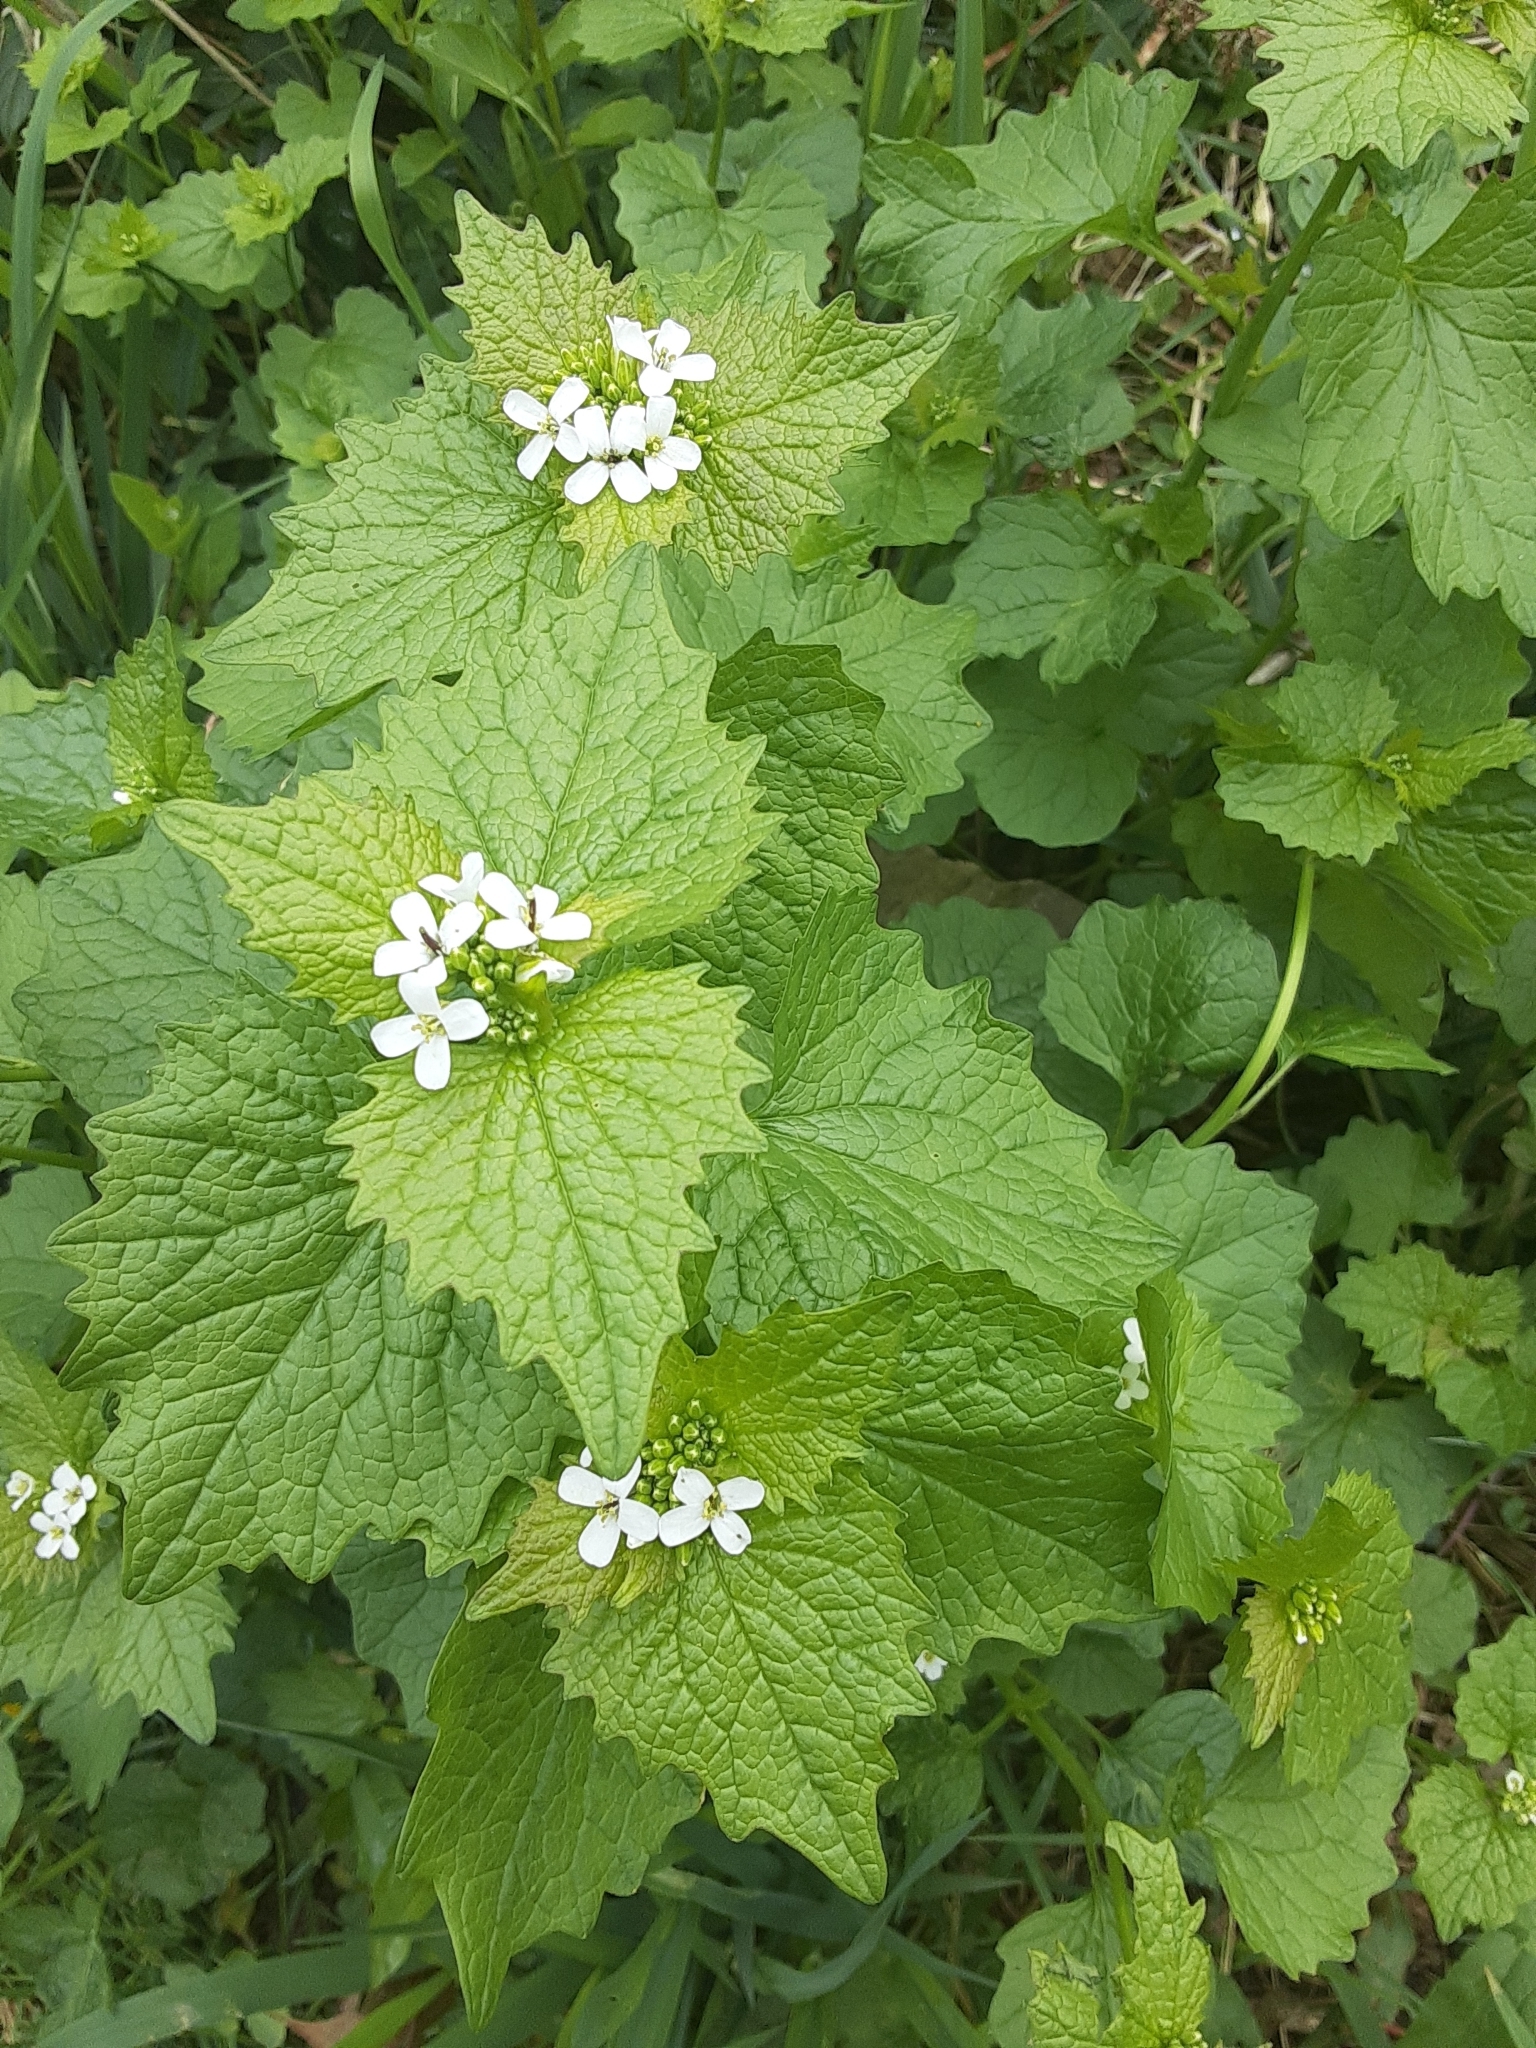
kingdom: Plantae
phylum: Tracheophyta
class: Magnoliopsida
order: Brassicales
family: Brassicaceae
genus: Alliaria
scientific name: Alliaria petiolata
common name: Garlic mustard
